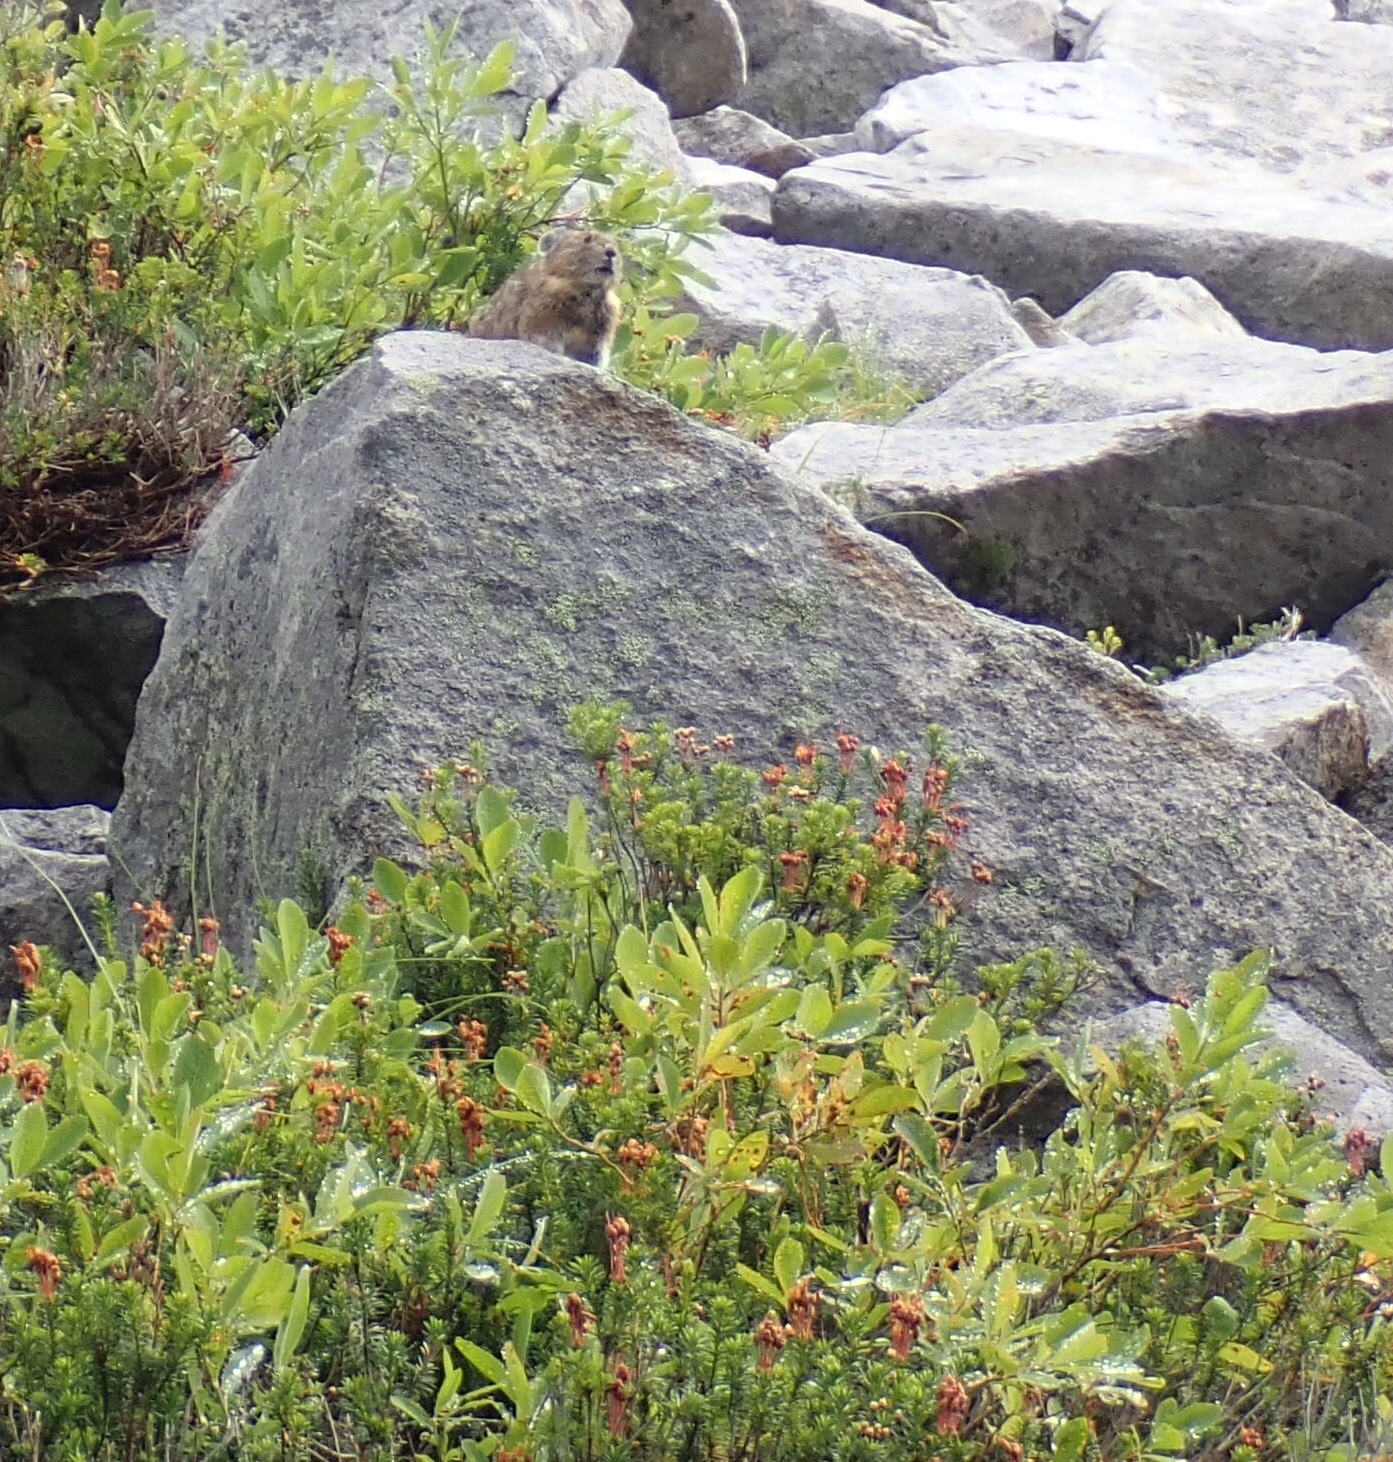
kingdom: Animalia
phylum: Chordata
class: Mammalia
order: Lagomorpha
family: Ochotonidae
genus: Ochotona
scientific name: Ochotona princeps
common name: American pika
